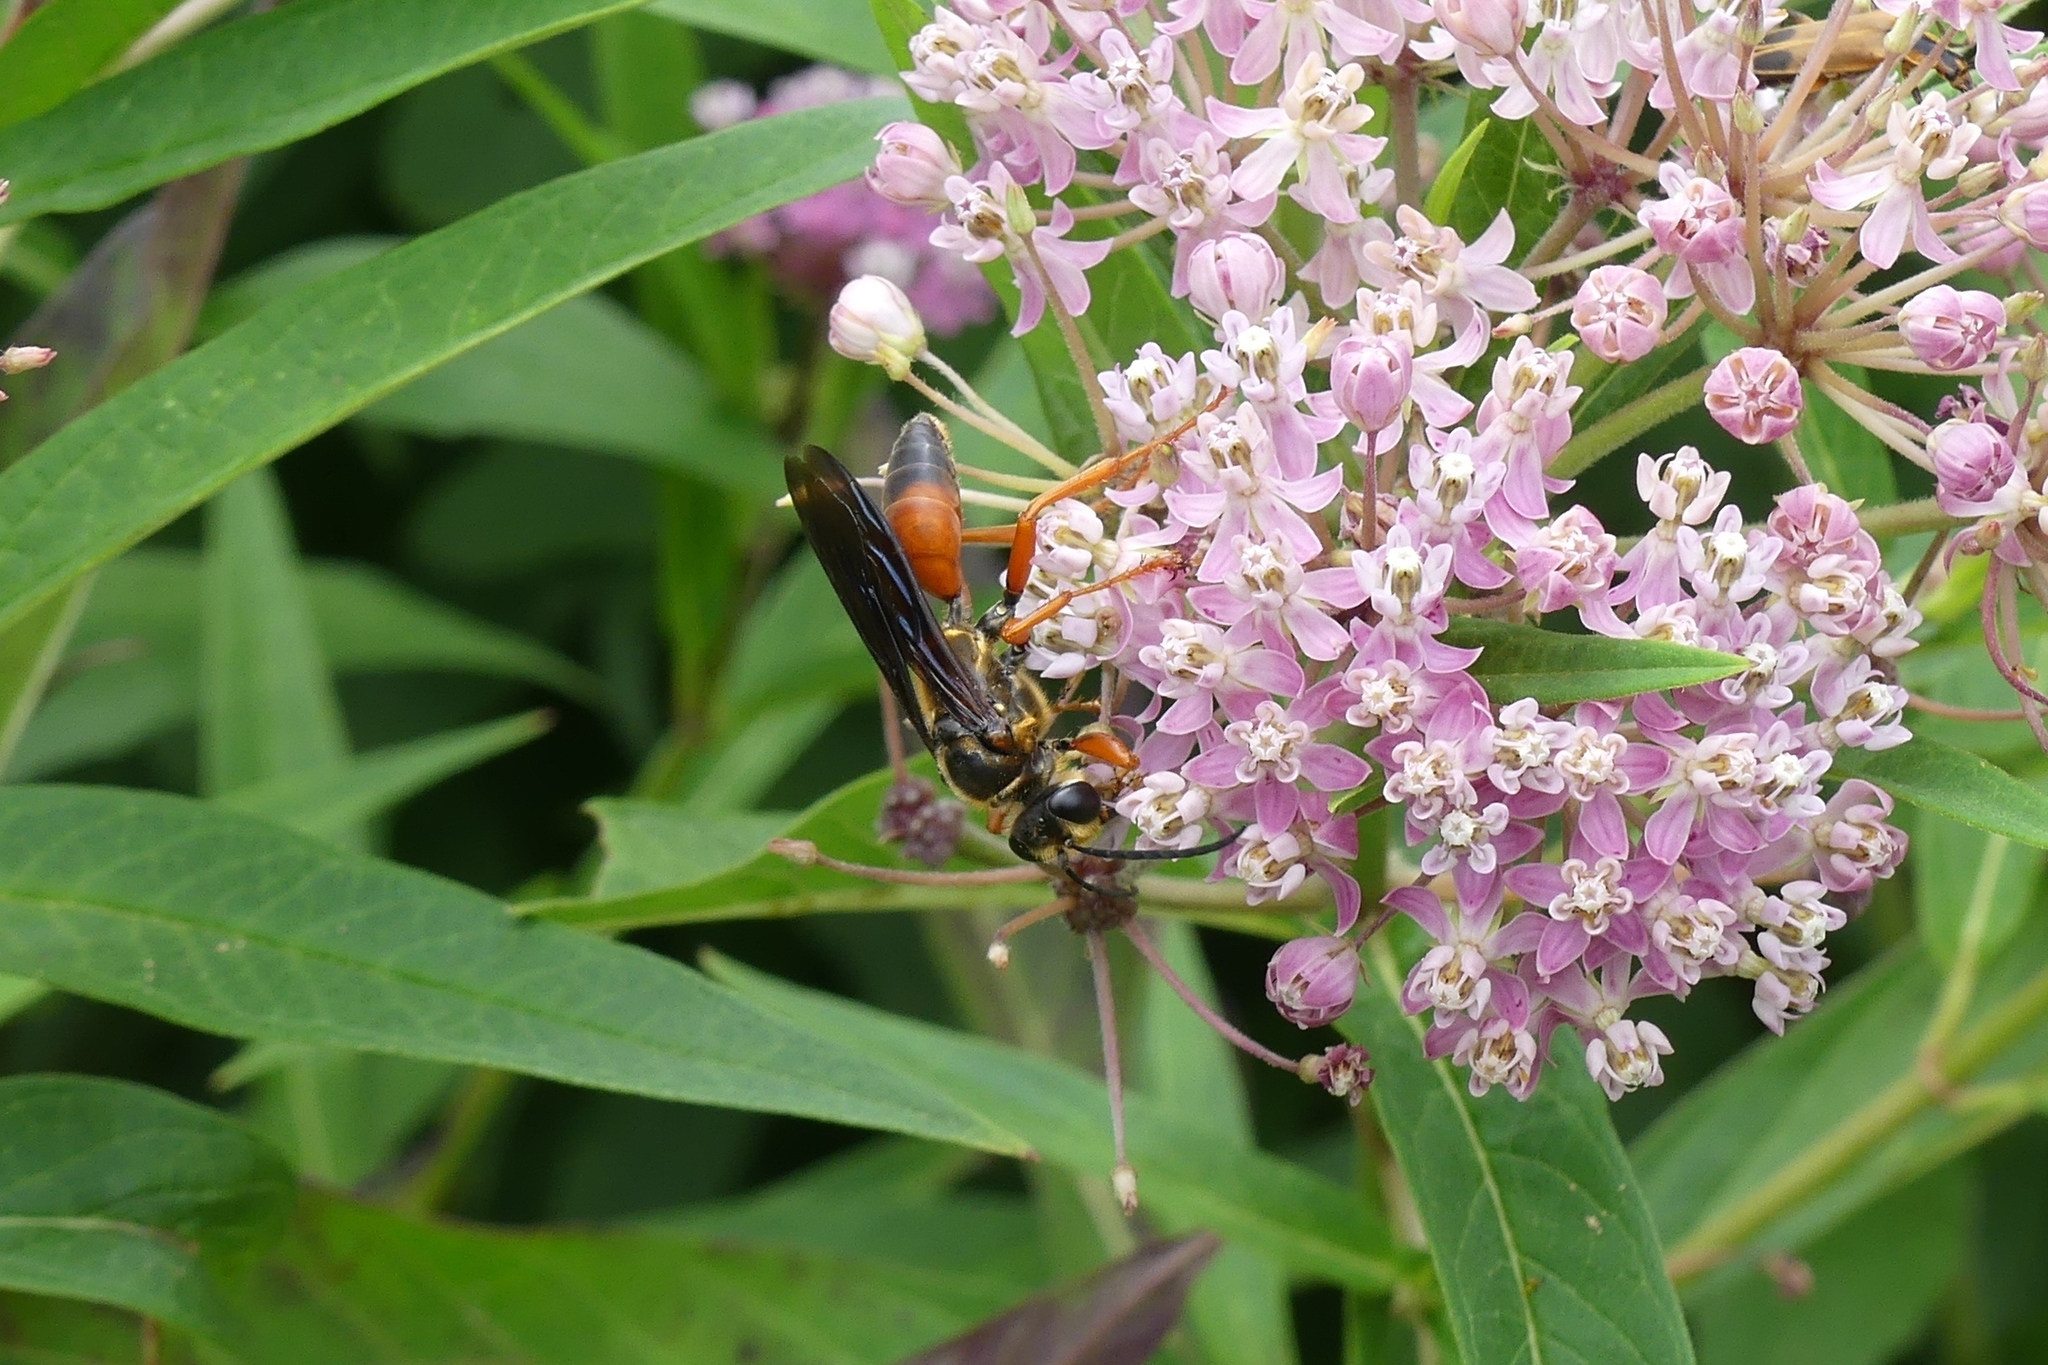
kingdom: Animalia
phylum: Arthropoda
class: Insecta
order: Hymenoptera
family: Sphecidae
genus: Sphex
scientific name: Sphex ichneumoneus
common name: Great golden digger wasp
